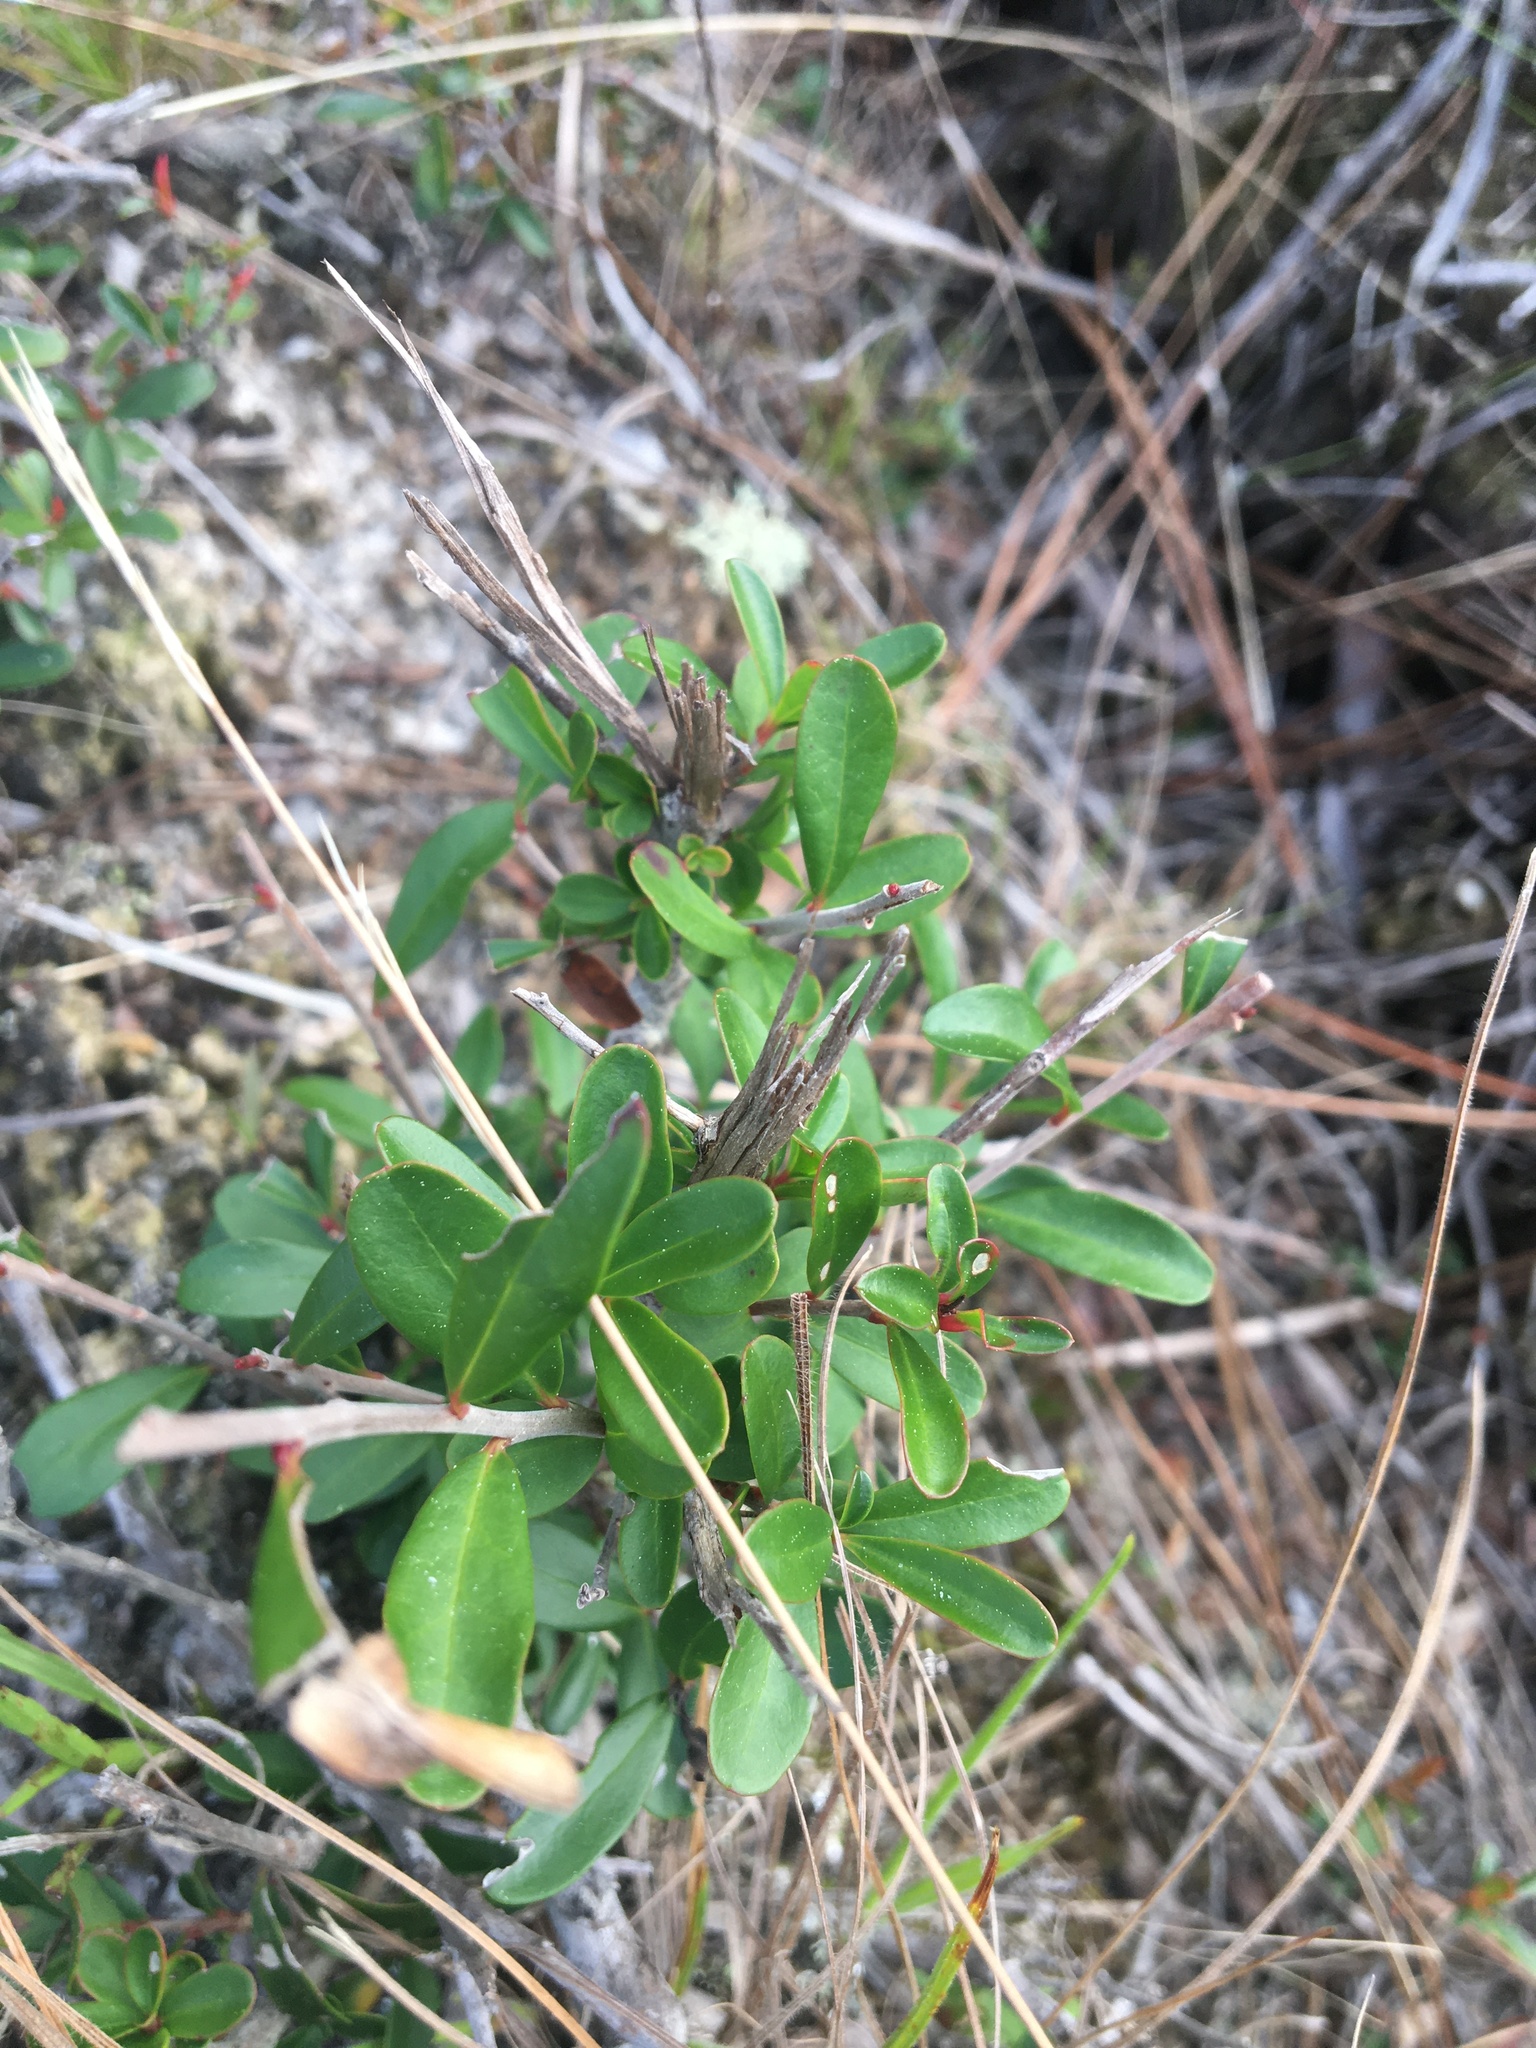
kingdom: Plantae
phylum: Tracheophyta
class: Magnoliopsida
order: Ericales
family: Cyrillaceae
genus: Cliftonia
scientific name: Cliftonia monophylla
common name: Titi
